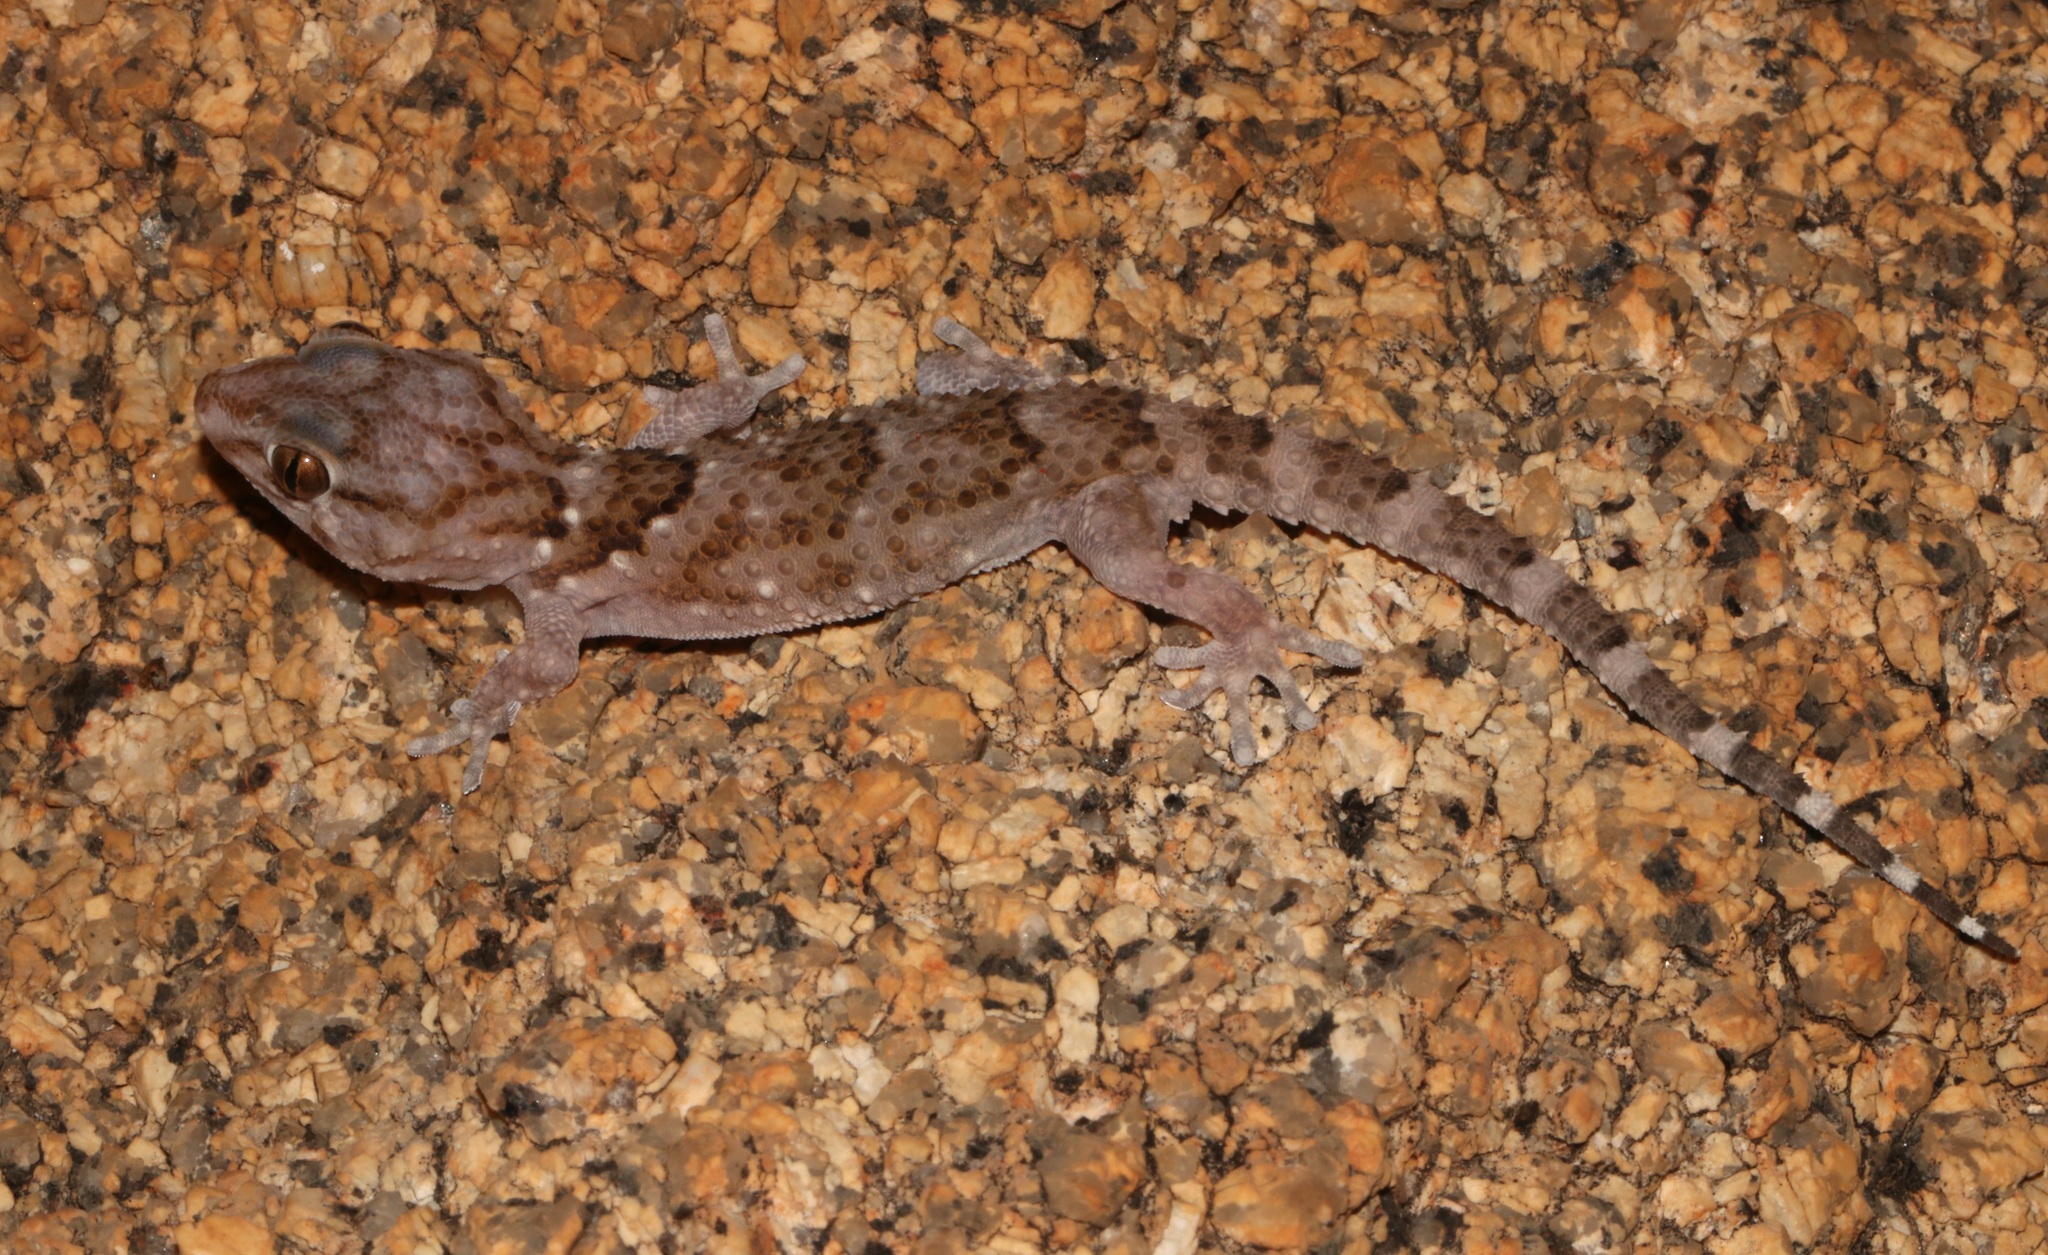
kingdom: Animalia
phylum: Chordata
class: Squamata
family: Gekkonidae
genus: Chondrodactylus
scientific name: Chondrodactylus laevigatus
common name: Fischer's thick-toed gecko
